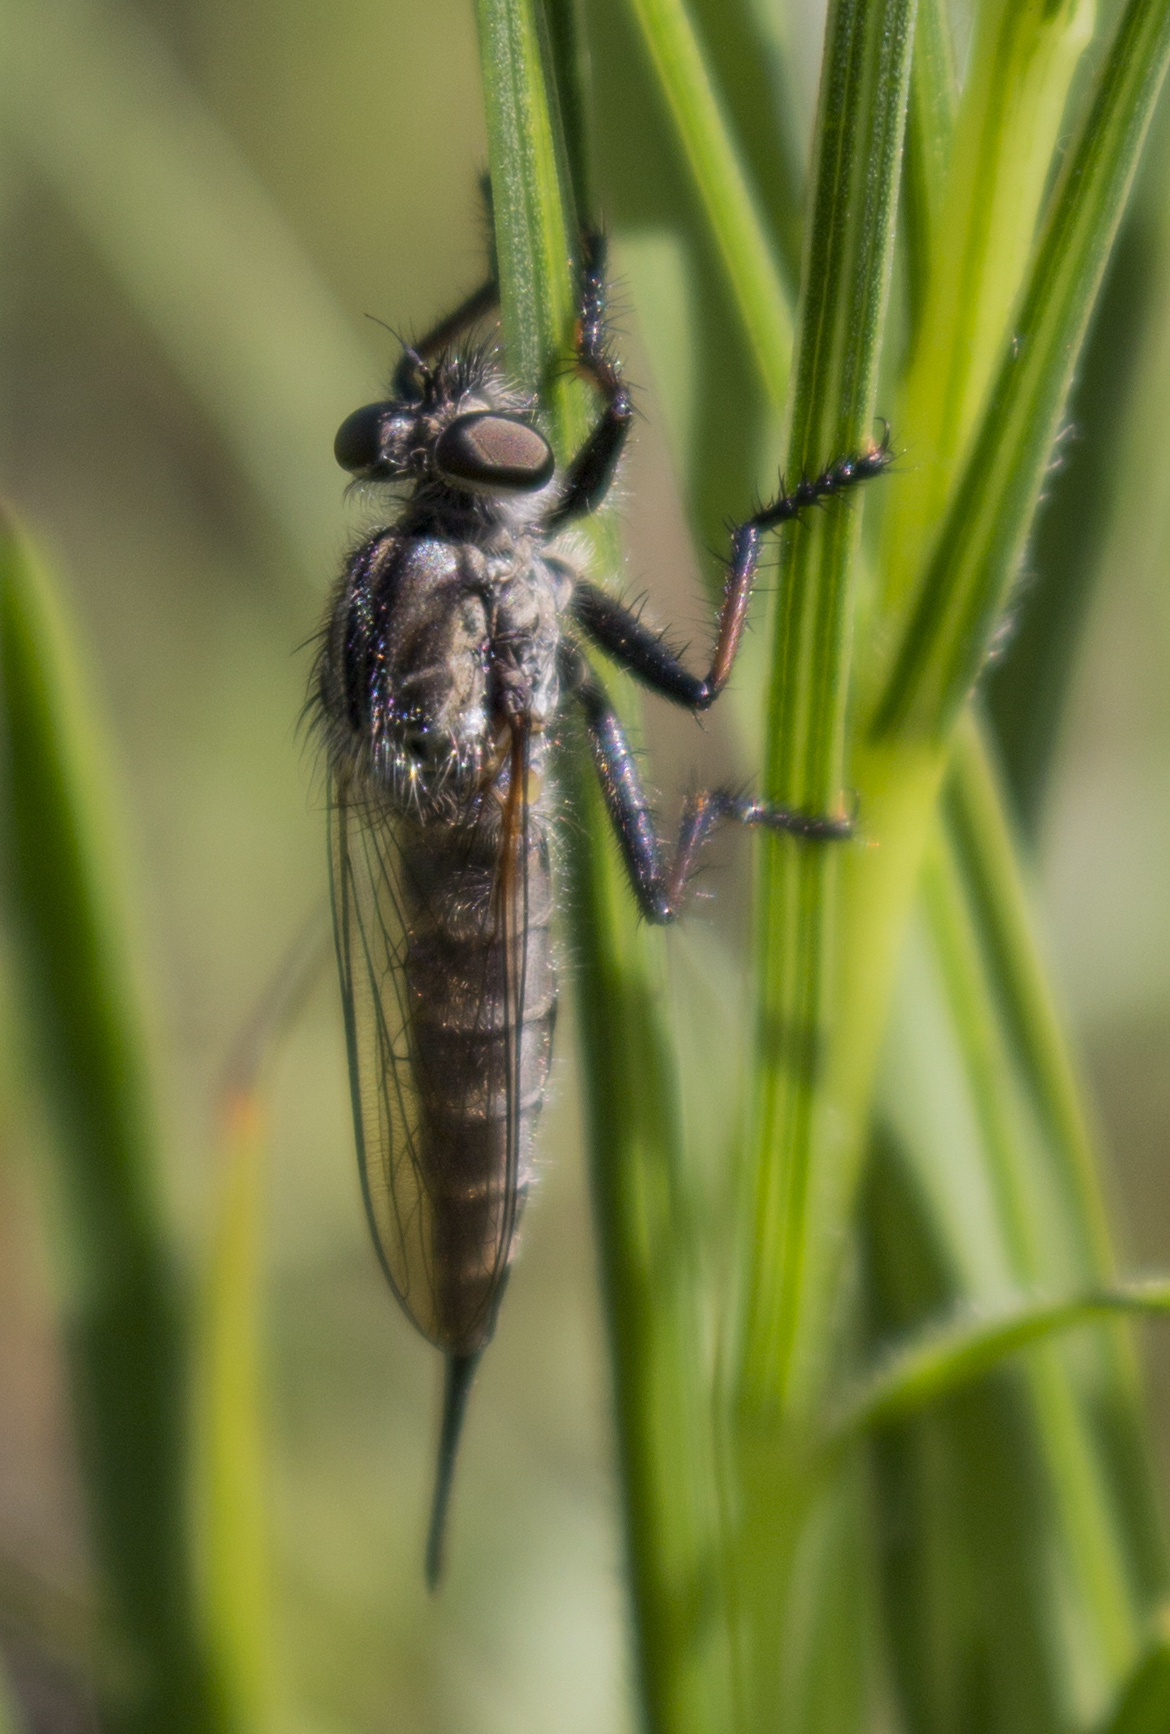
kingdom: Animalia
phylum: Arthropoda
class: Insecta
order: Diptera
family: Asilidae
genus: Efferia
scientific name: Efferia aestuans
